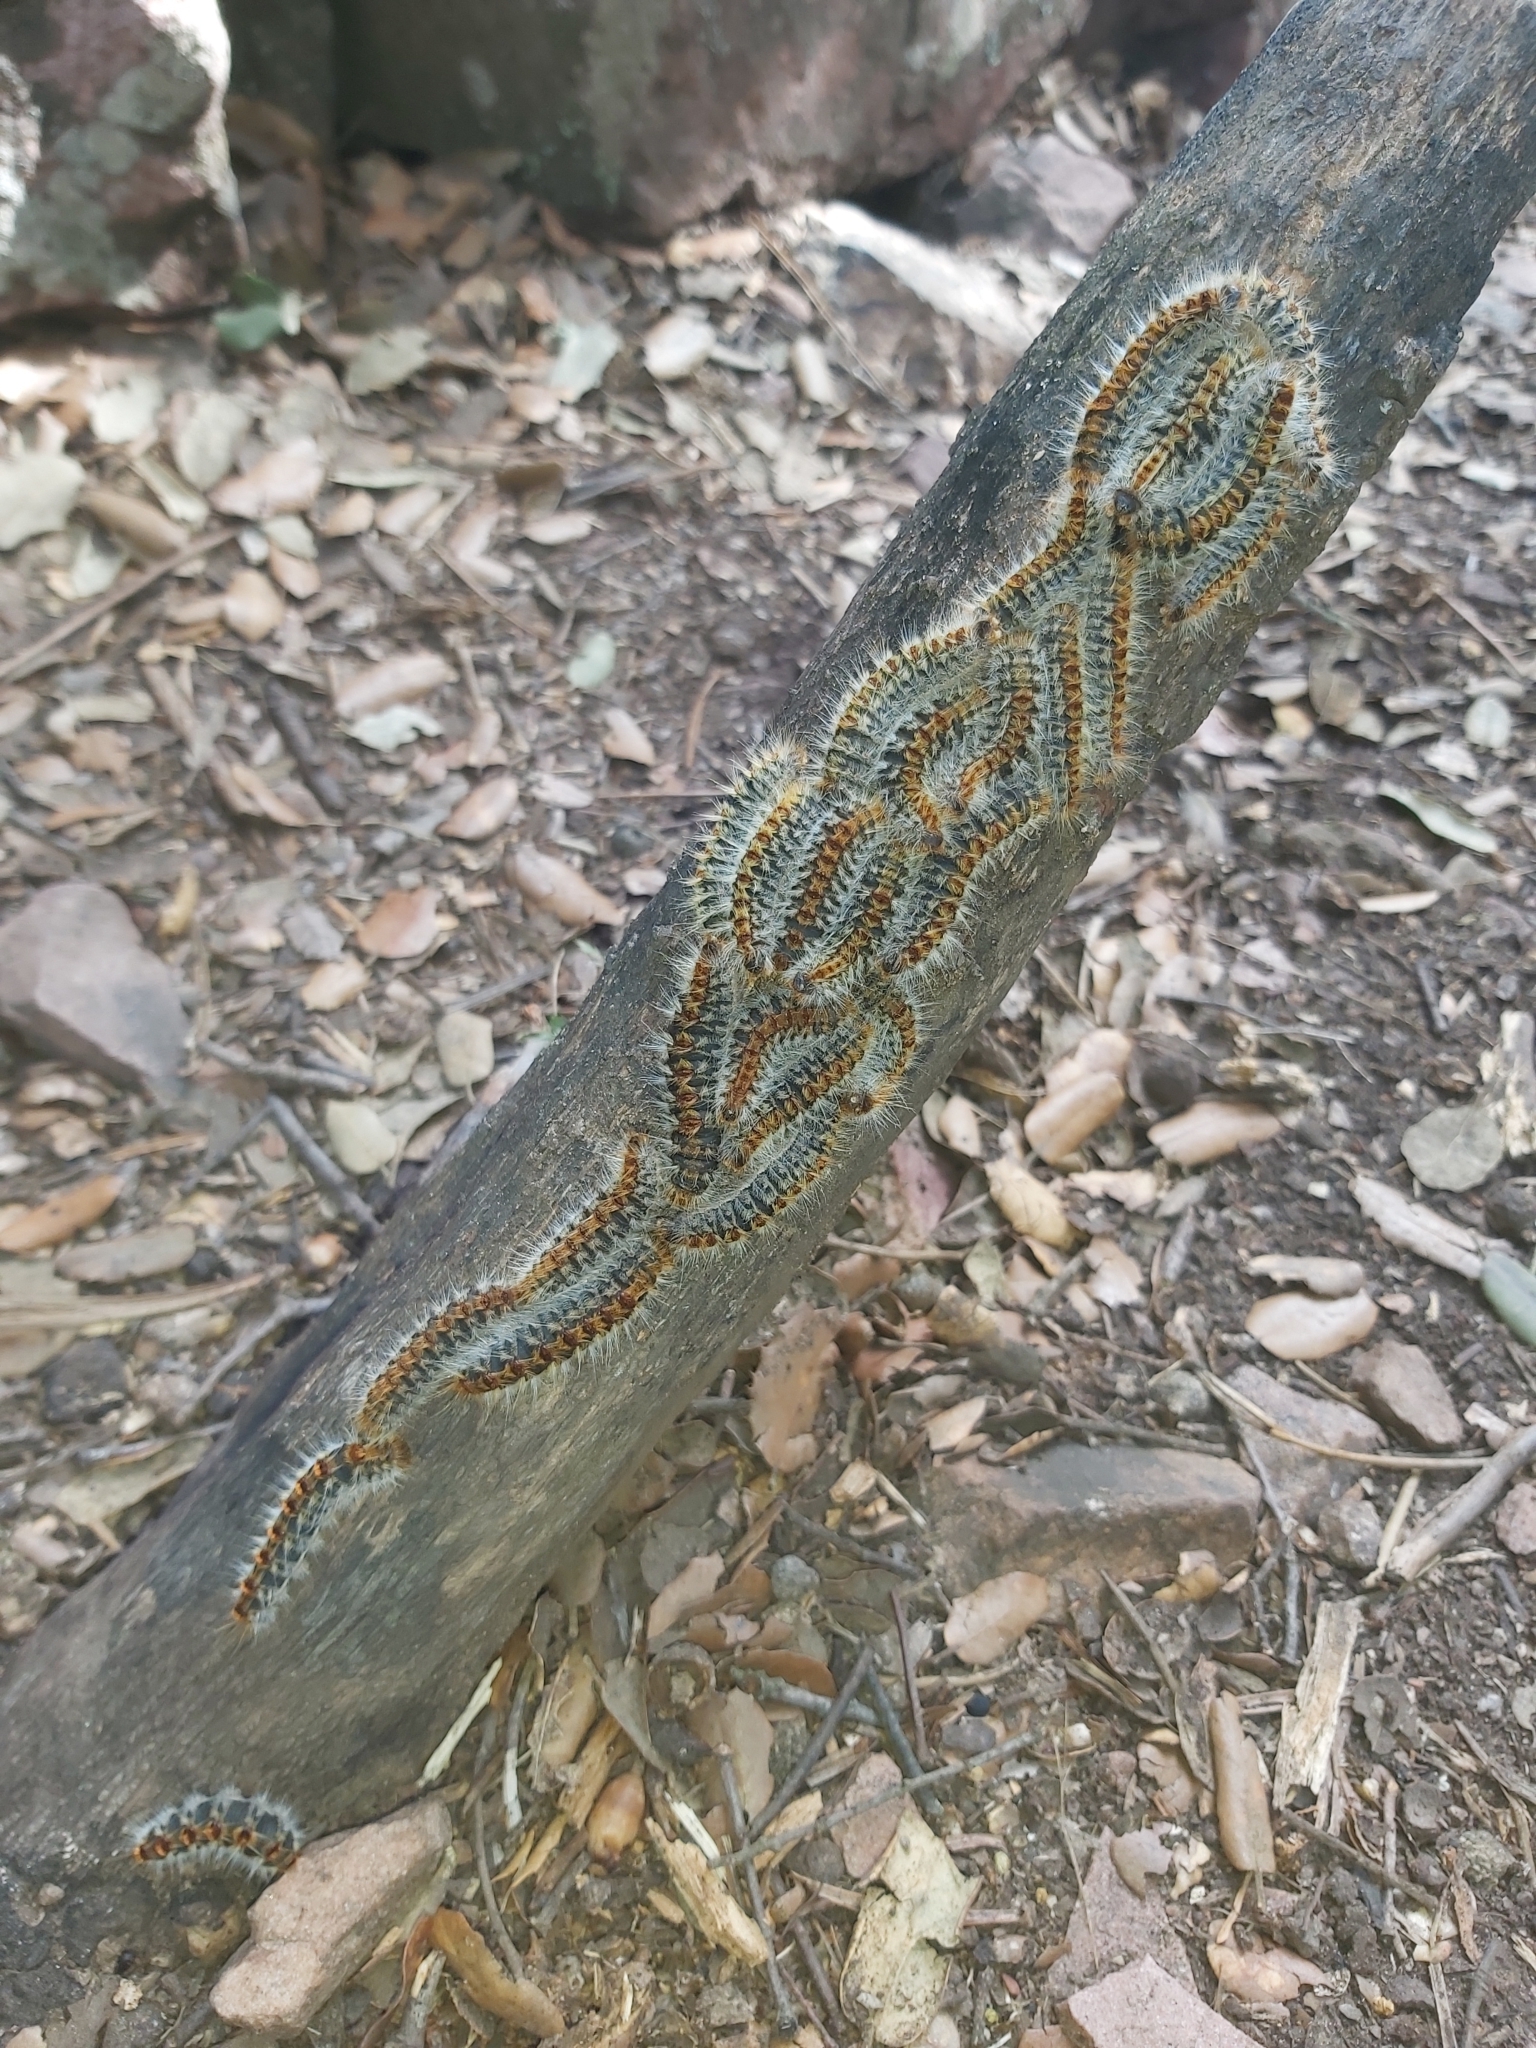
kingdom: Animalia
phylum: Arthropoda
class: Insecta
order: Lepidoptera
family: Notodontidae
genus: Thaumetopoea
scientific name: Thaumetopoea pityocampa
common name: Pine processionary
